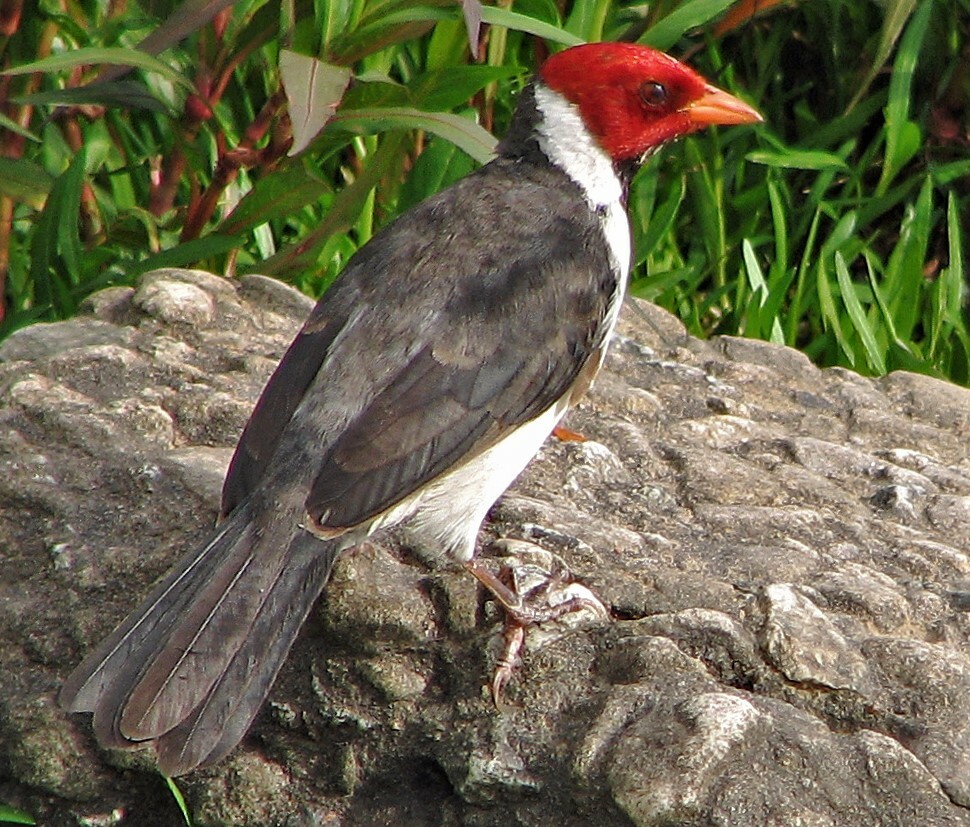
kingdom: Animalia
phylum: Chordata
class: Aves
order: Passeriformes
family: Thraupidae
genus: Paroaria
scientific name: Paroaria capitata
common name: Yellow-billed cardinal
